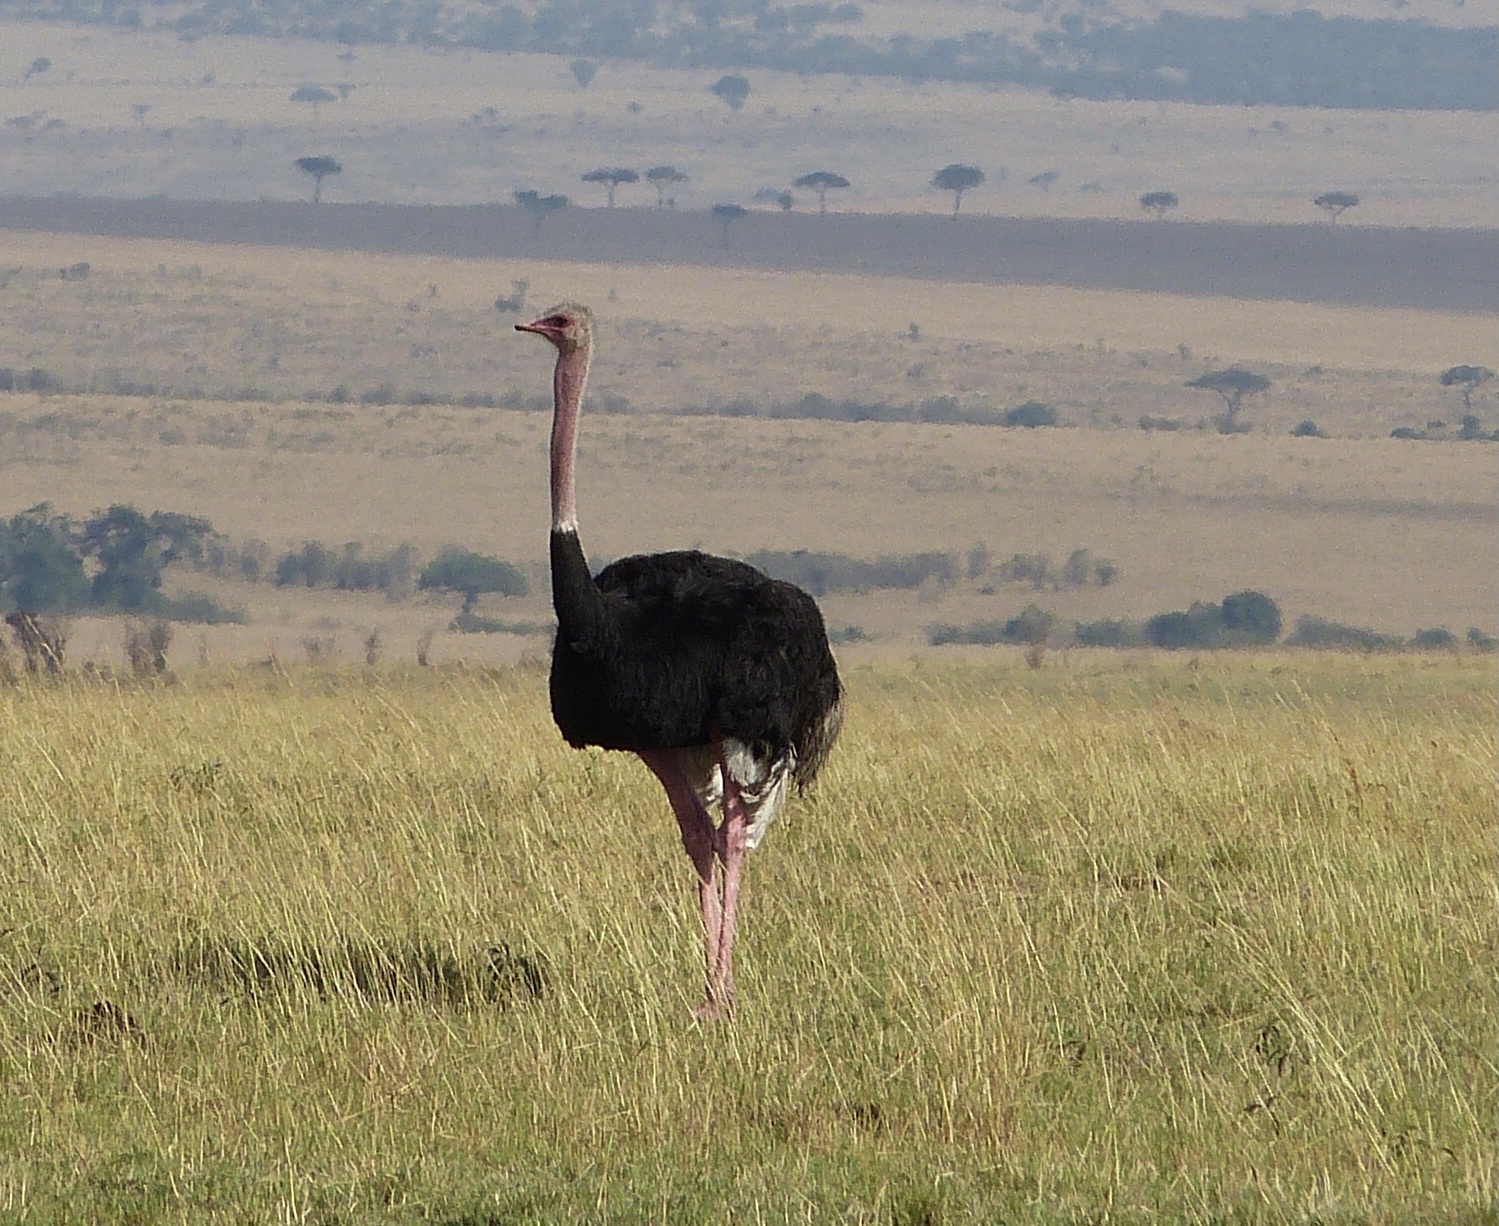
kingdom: Animalia
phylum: Chordata
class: Aves
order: Struthioniformes
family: Struthionidae
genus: Struthio
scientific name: Struthio camelus
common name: Common ostrich
